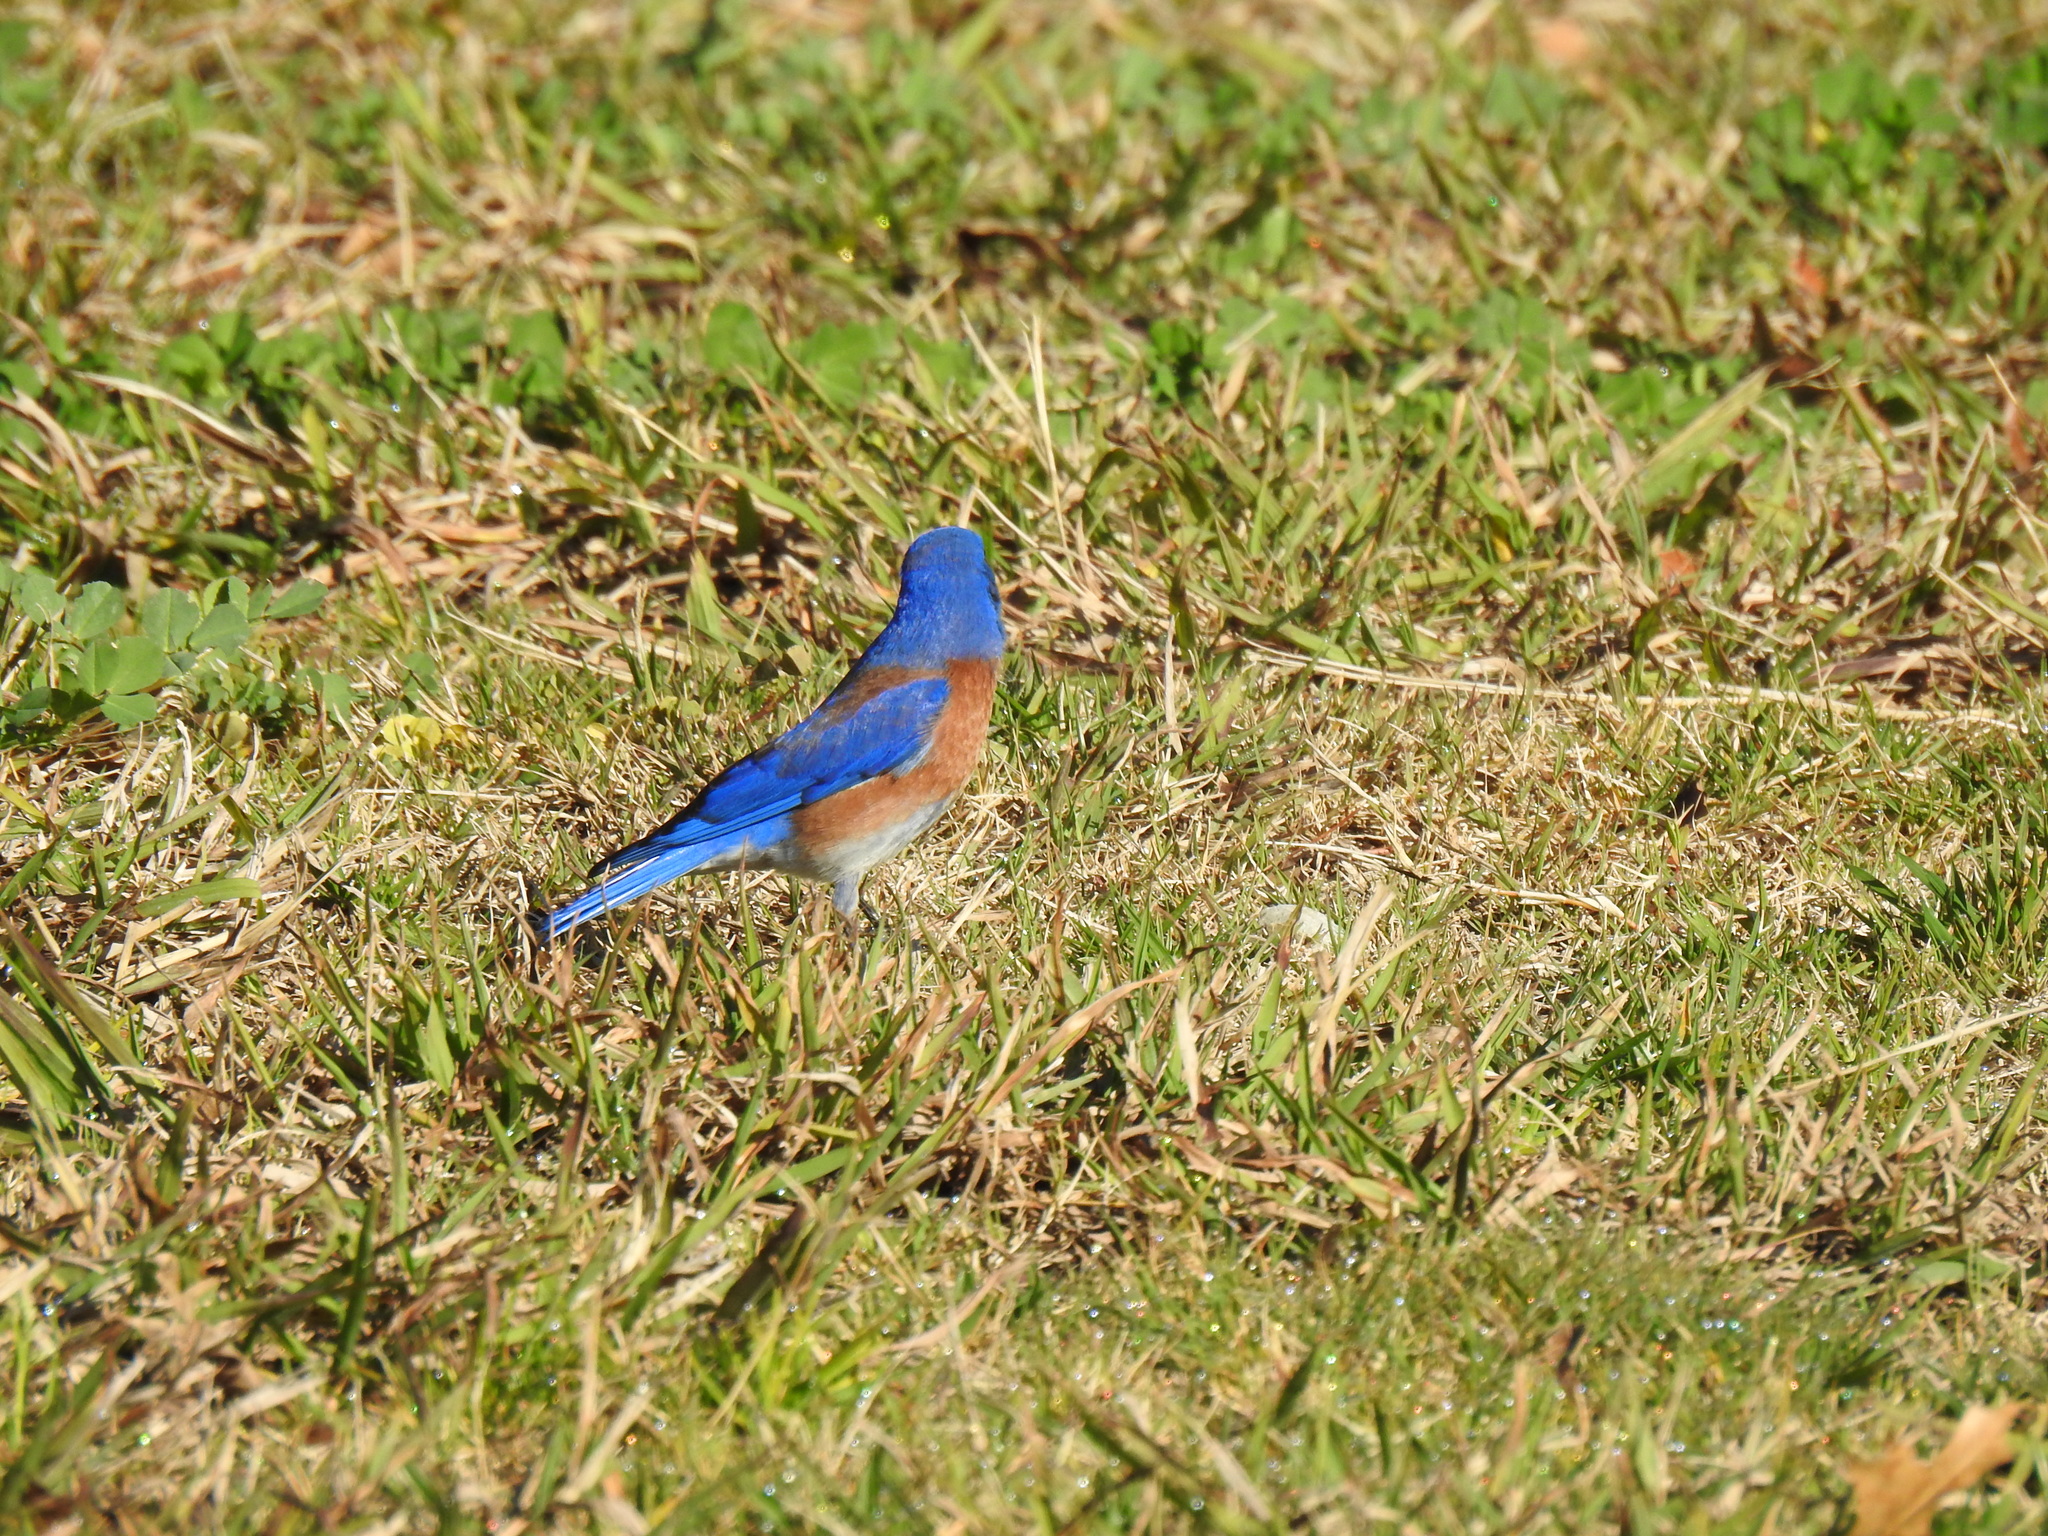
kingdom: Animalia
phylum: Chordata
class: Aves
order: Passeriformes
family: Turdidae
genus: Sialia
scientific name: Sialia mexicana
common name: Western bluebird
